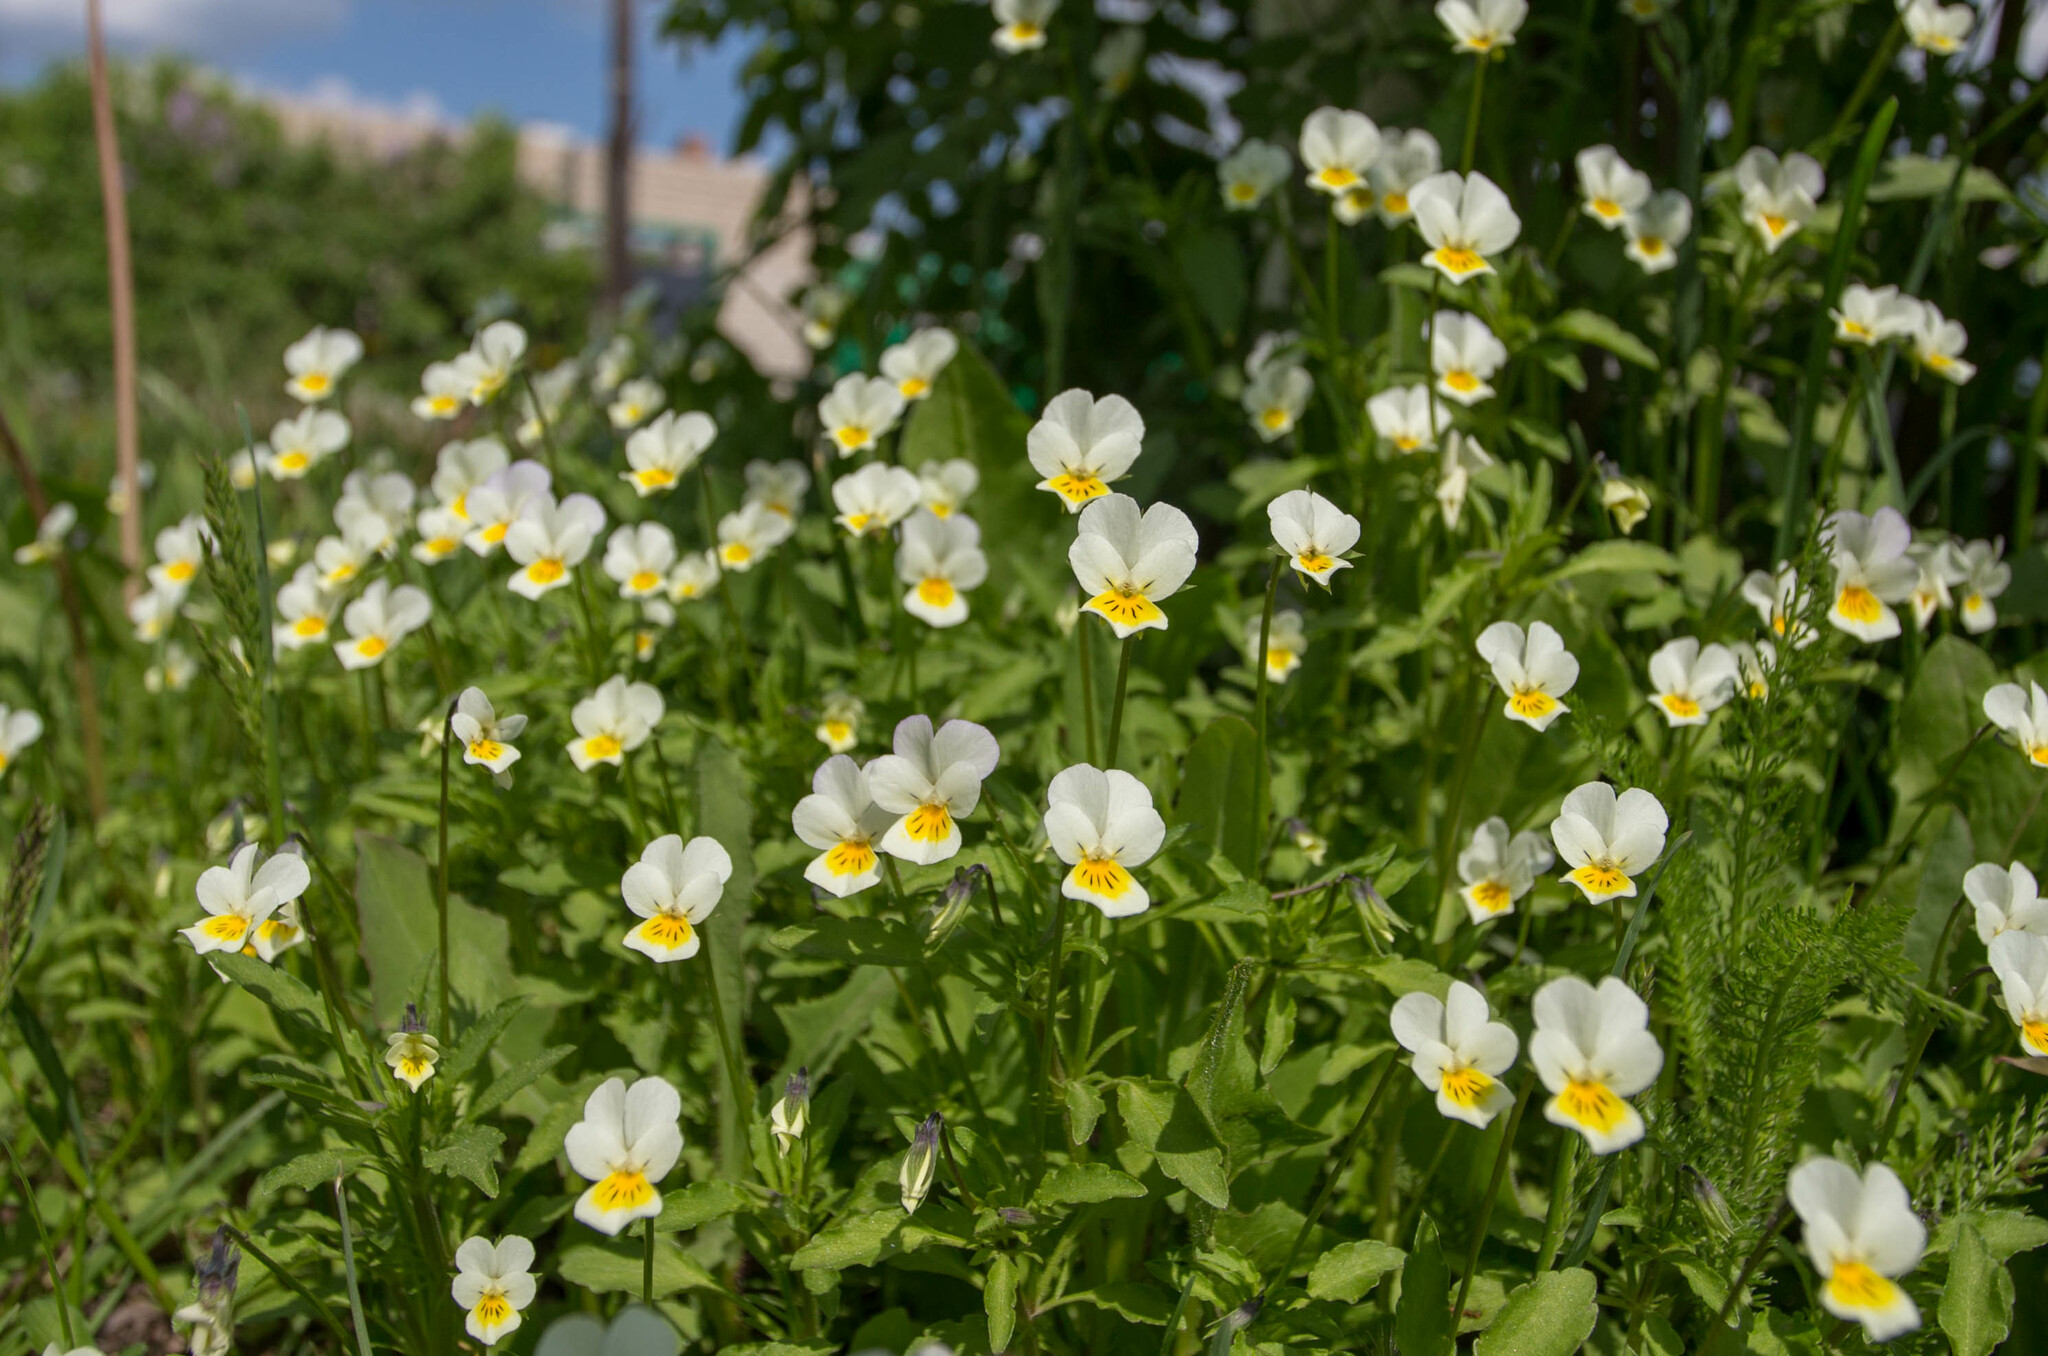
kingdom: Plantae
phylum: Tracheophyta
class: Magnoliopsida
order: Malpighiales
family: Violaceae
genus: Viola
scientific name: Viola arvensis
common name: Field pansy
